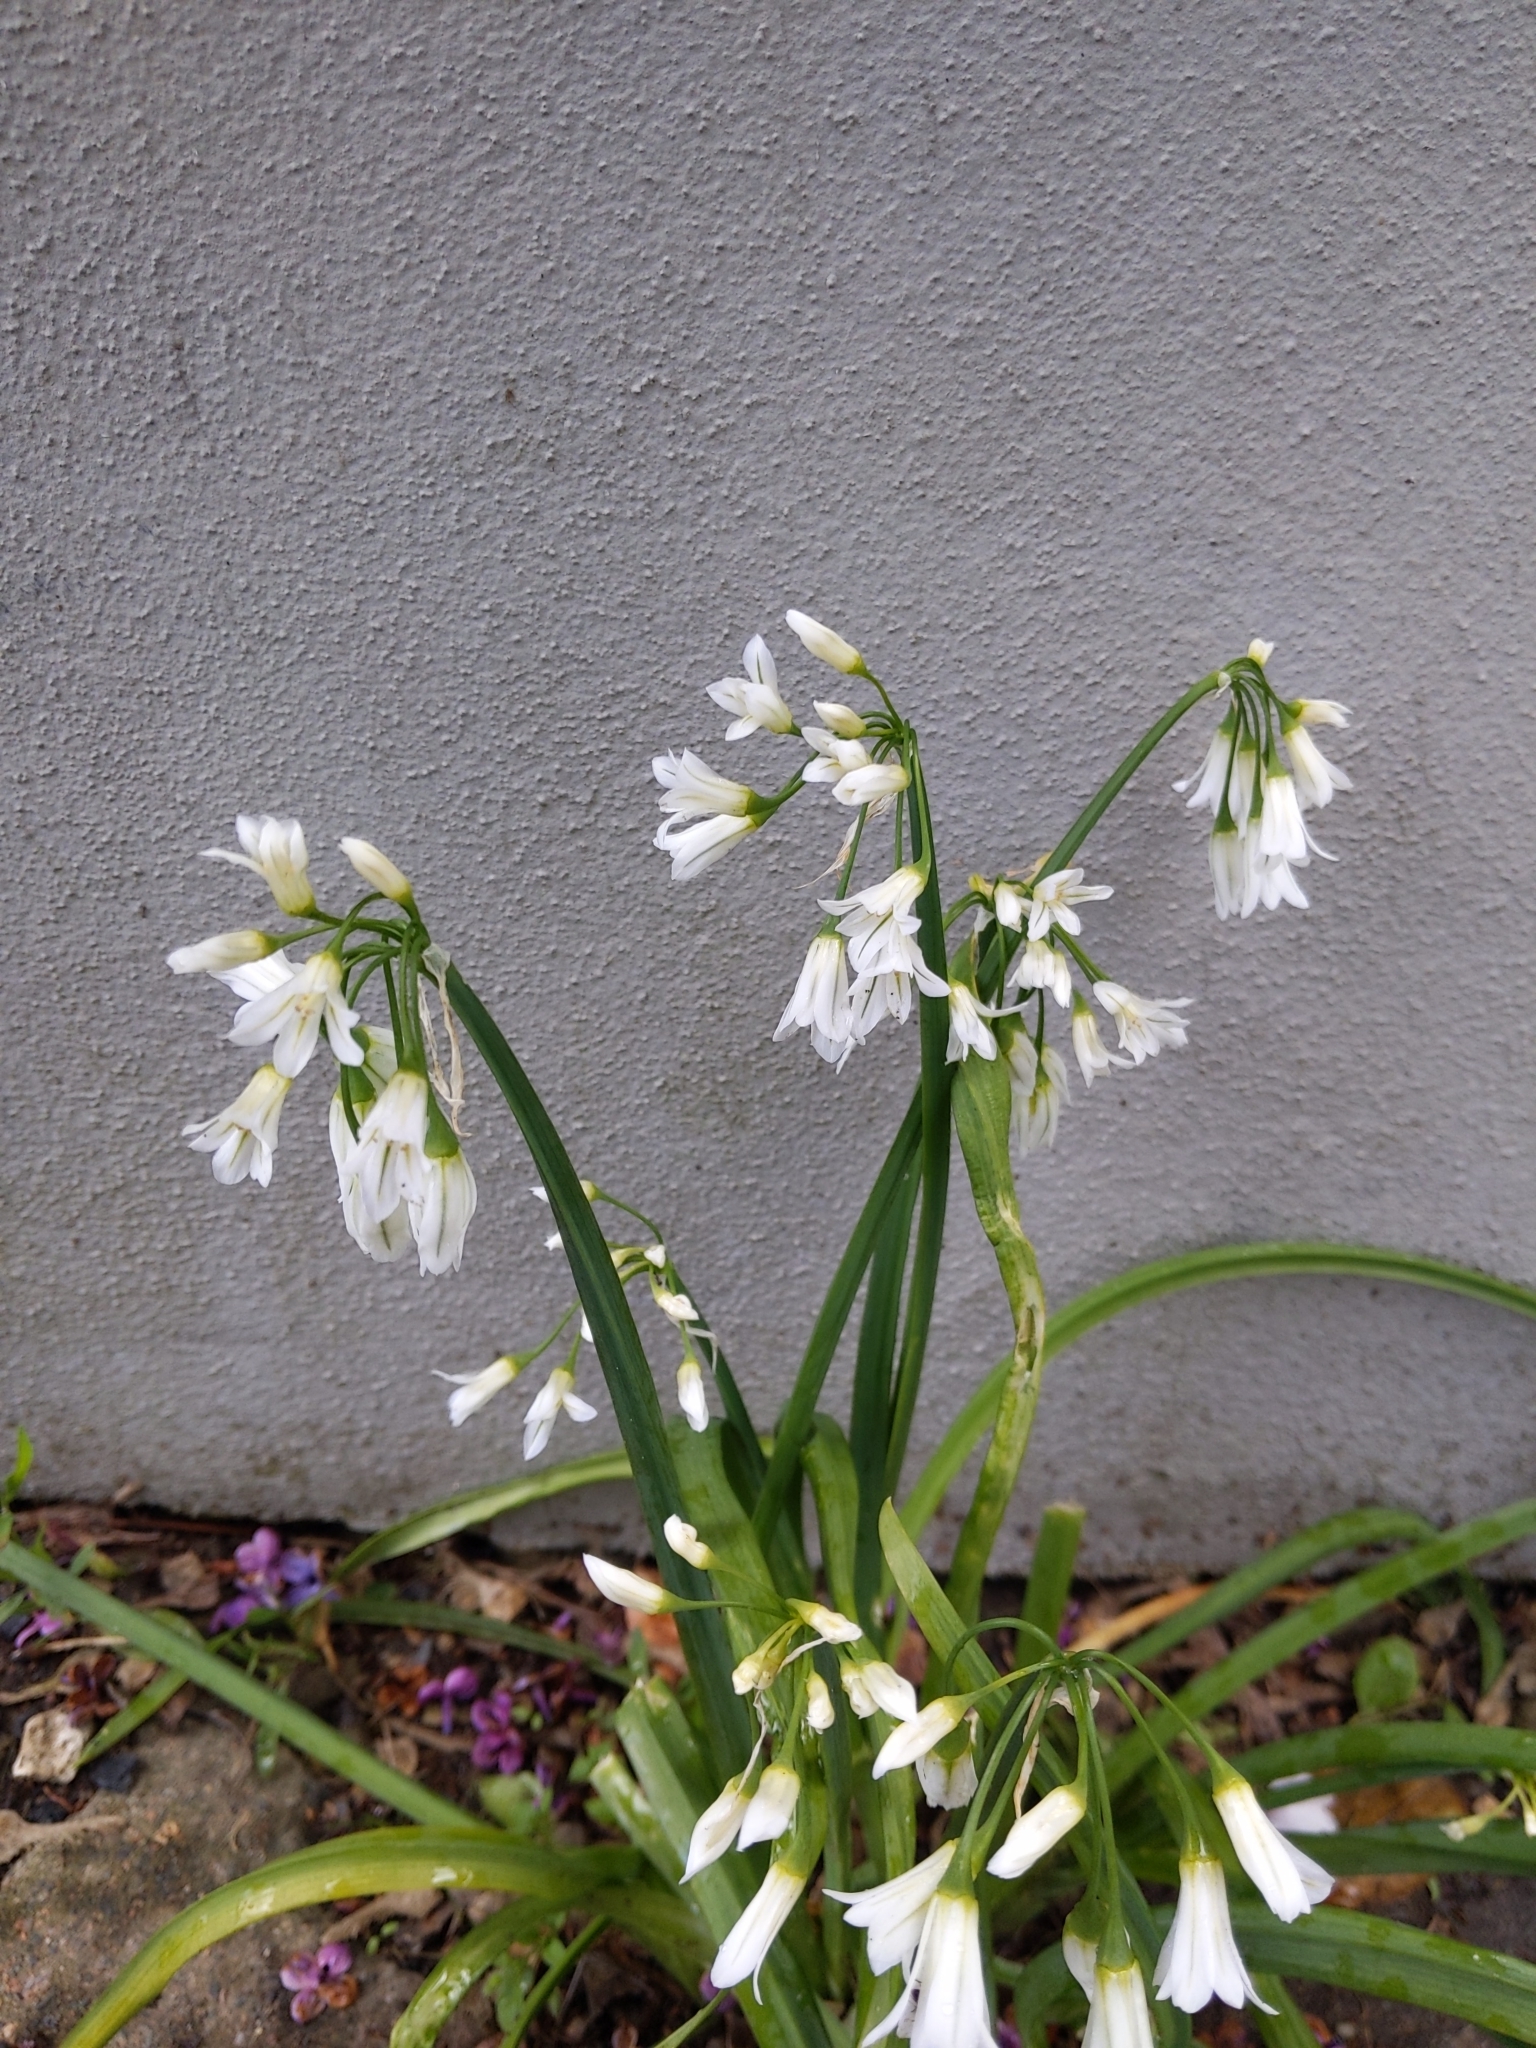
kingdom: Plantae
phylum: Tracheophyta
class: Liliopsida
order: Asparagales
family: Amaryllidaceae
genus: Allium
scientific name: Allium triquetrum
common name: Three-cornered garlic
